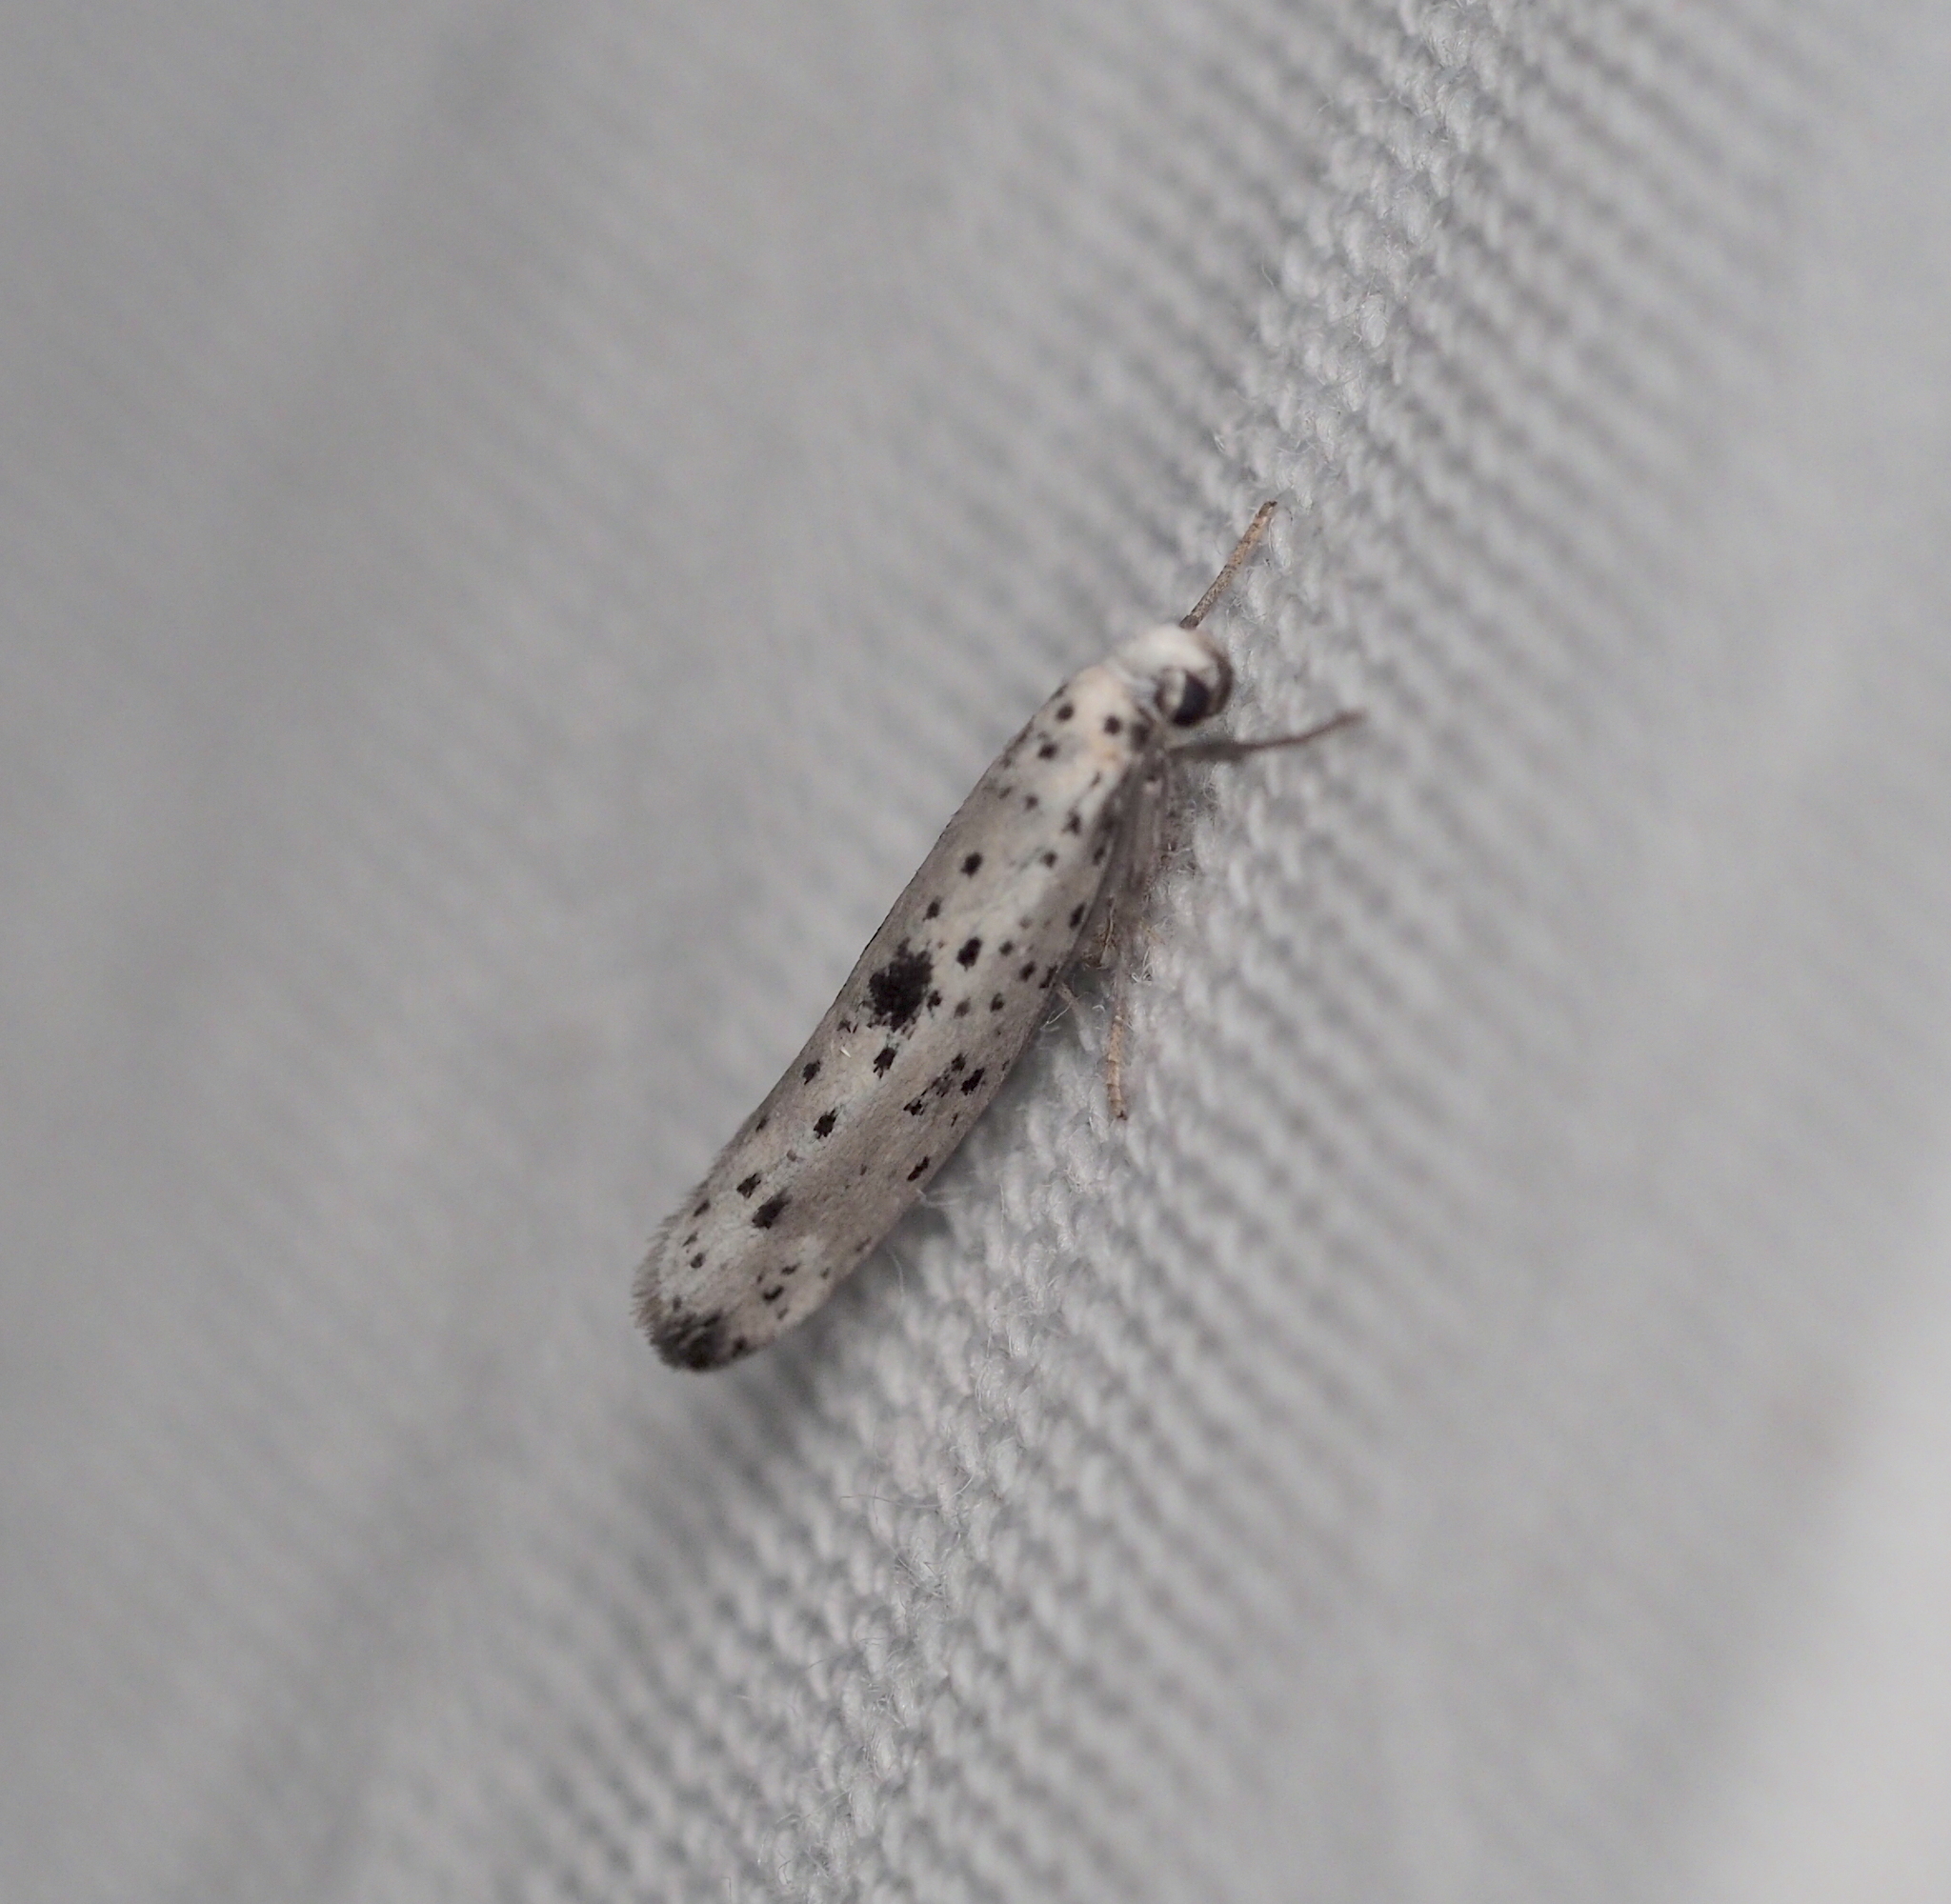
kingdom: Animalia
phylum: Arthropoda
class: Insecta
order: Lepidoptera
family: Yponomeutidae
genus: Yponomeuta
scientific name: Yponomeuta plumbella
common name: Black-tipped ermine
